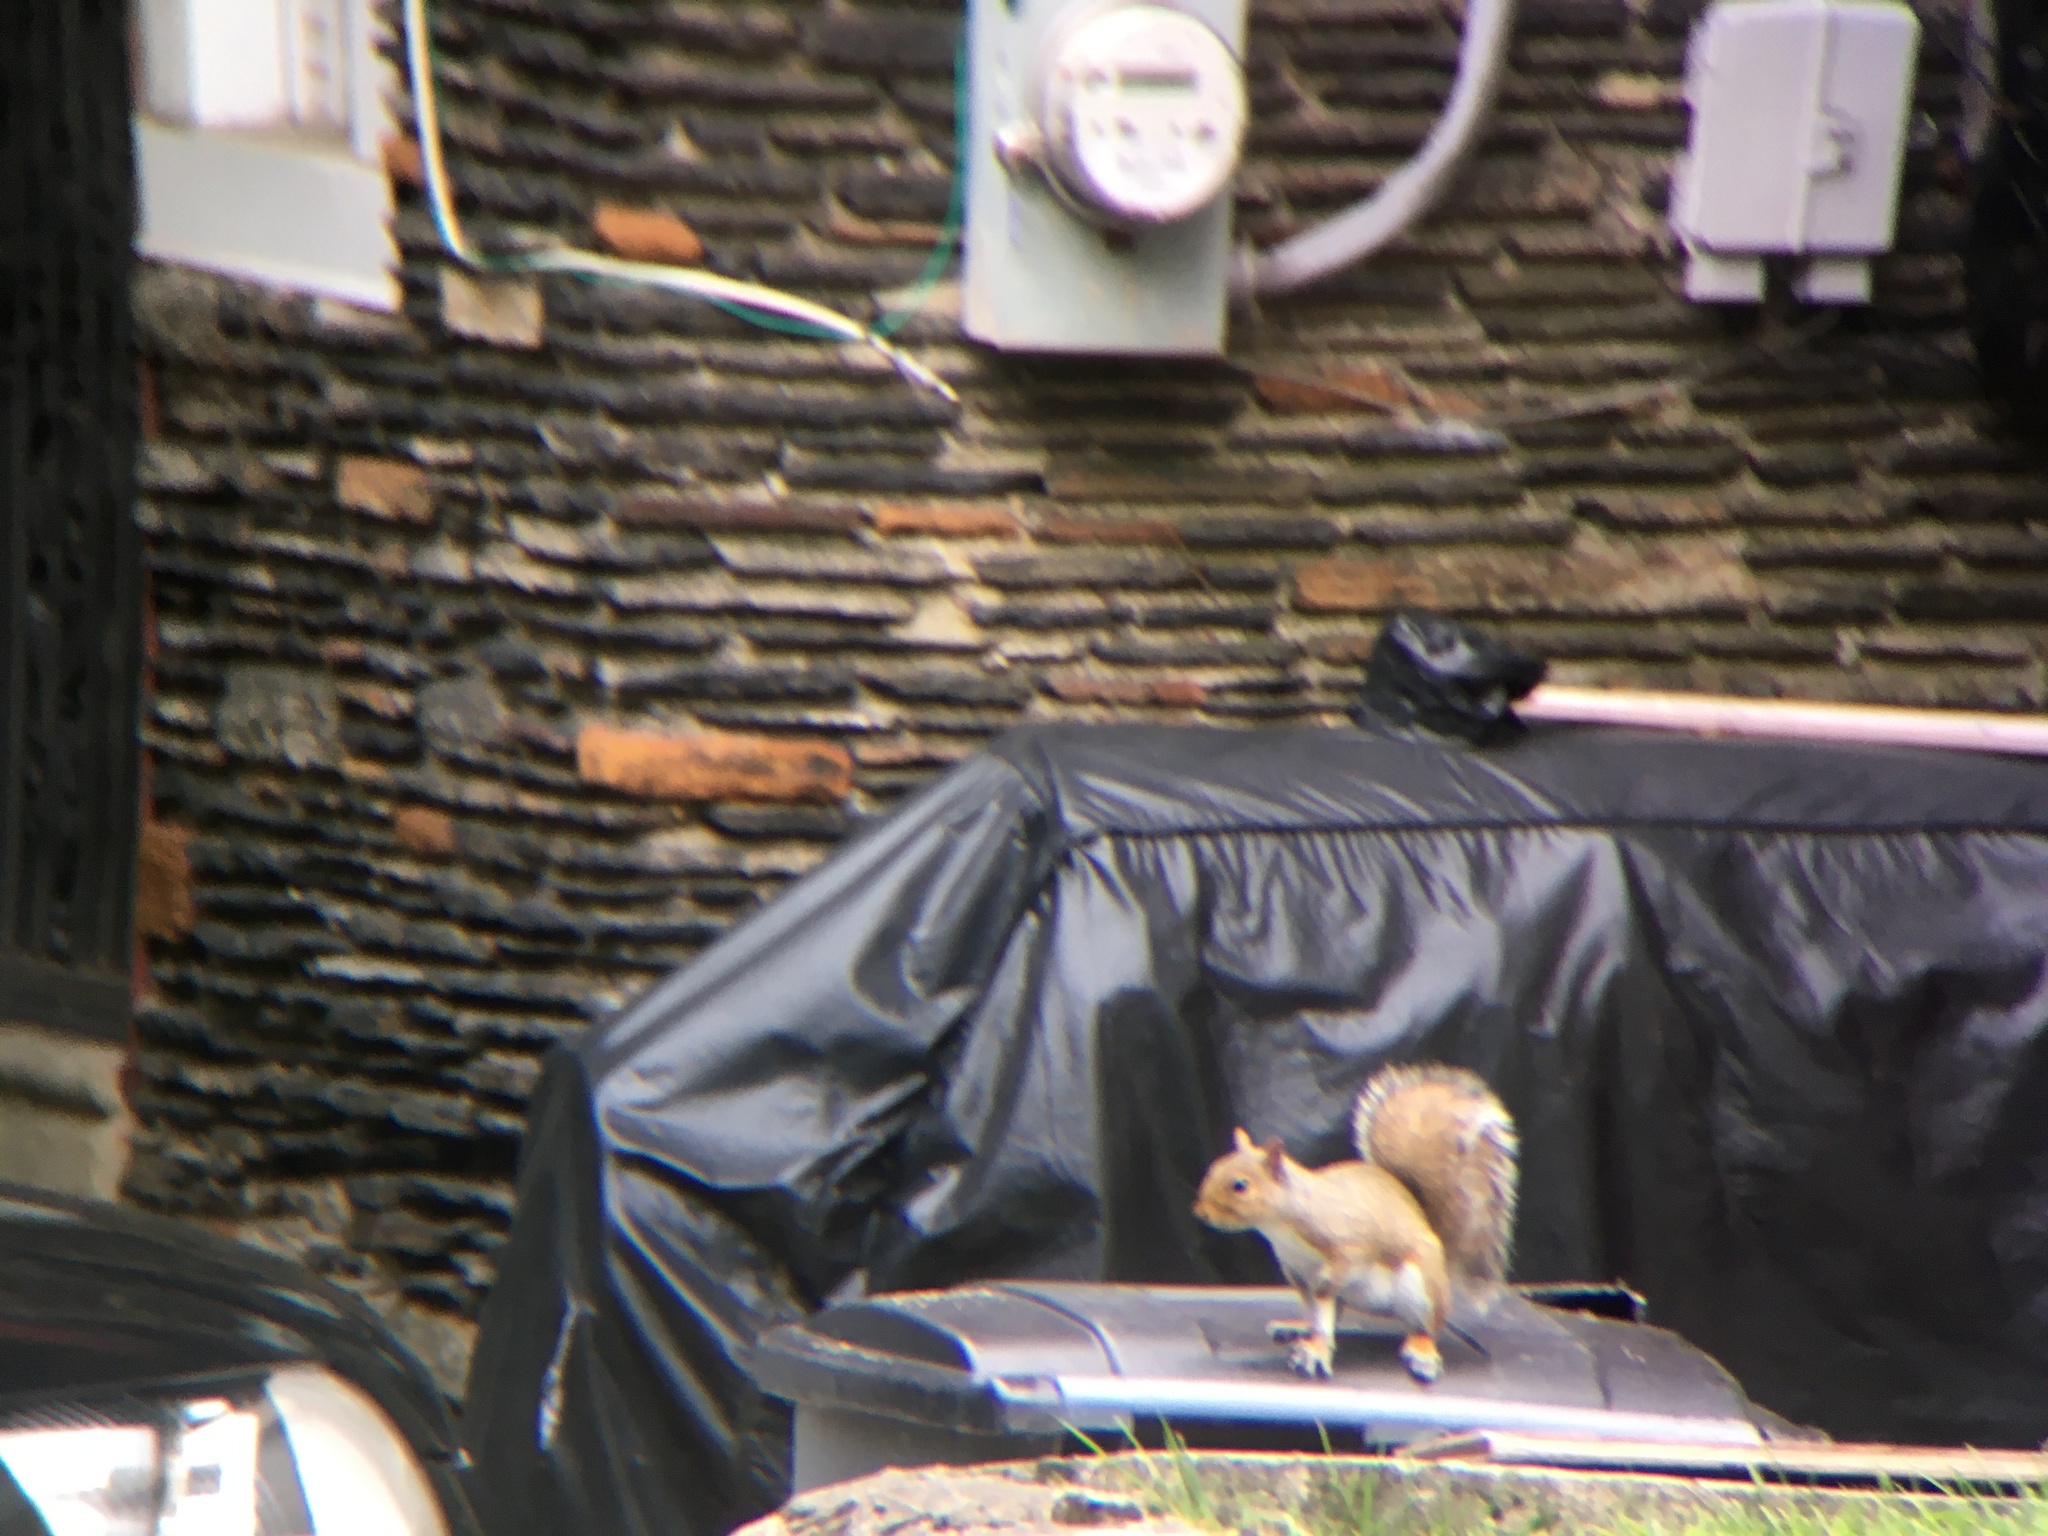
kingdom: Animalia
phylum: Chordata
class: Mammalia
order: Rodentia
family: Sciuridae
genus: Sciurus
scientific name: Sciurus carolinensis
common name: Eastern gray squirrel
